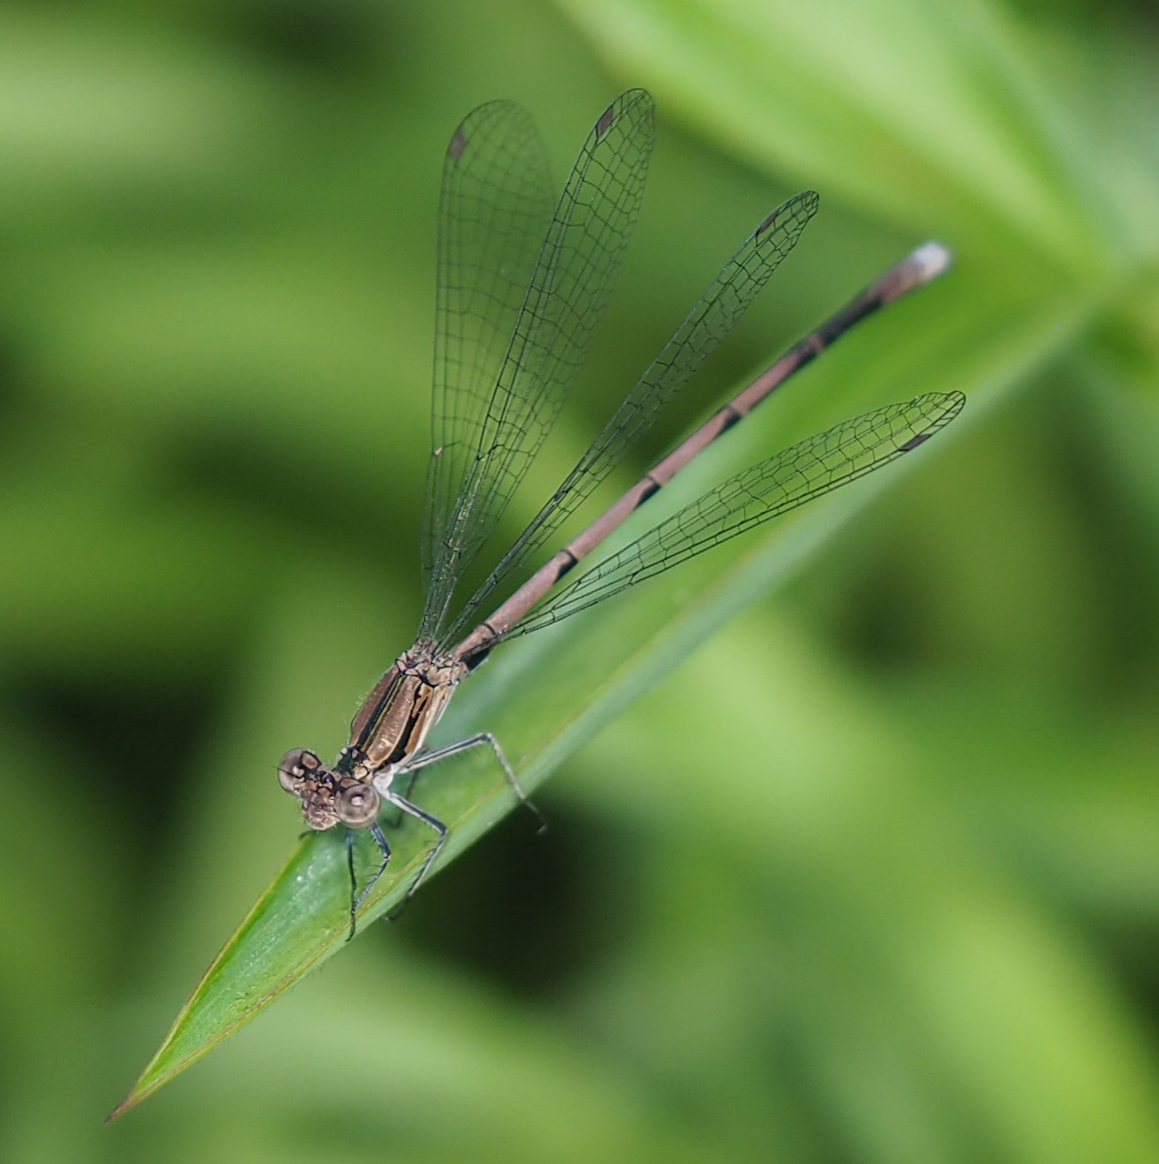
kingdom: Animalia
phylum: Arthropoda
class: Insecta
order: Odonata
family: Coenagrionidae
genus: Argia
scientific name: Argia fumipennis
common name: Variable dancer
